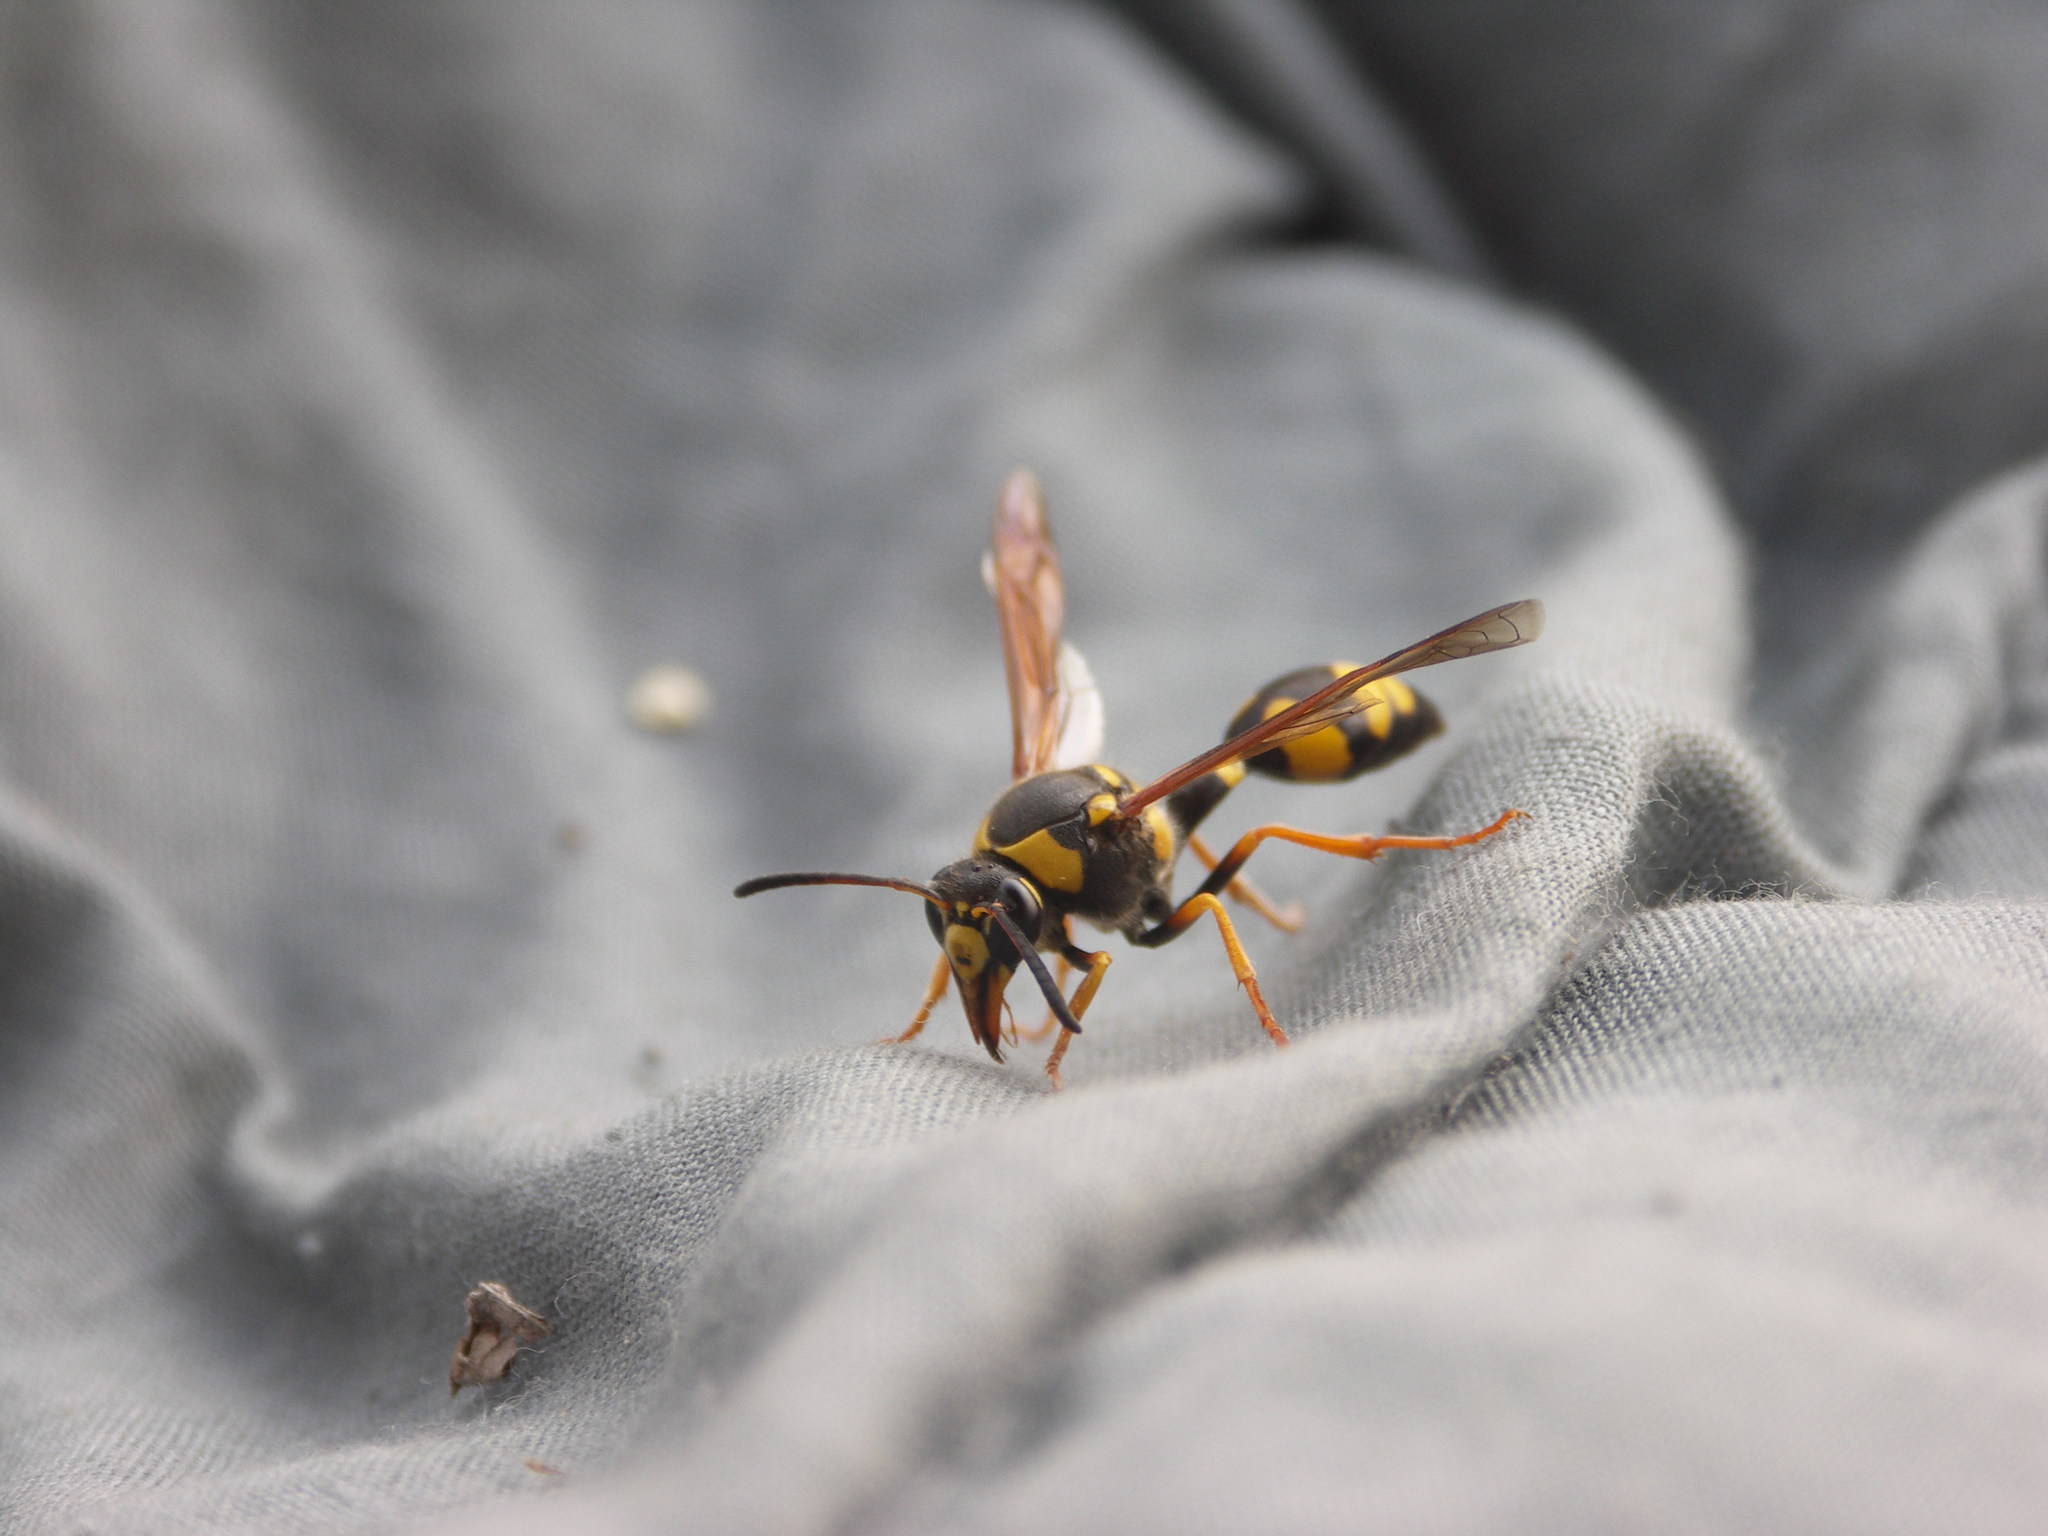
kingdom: Animalia
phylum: Arthropoda
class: Insecta
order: Hymenoptera
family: Eumenidae
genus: Katamenes
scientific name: Katamenes tauricus
